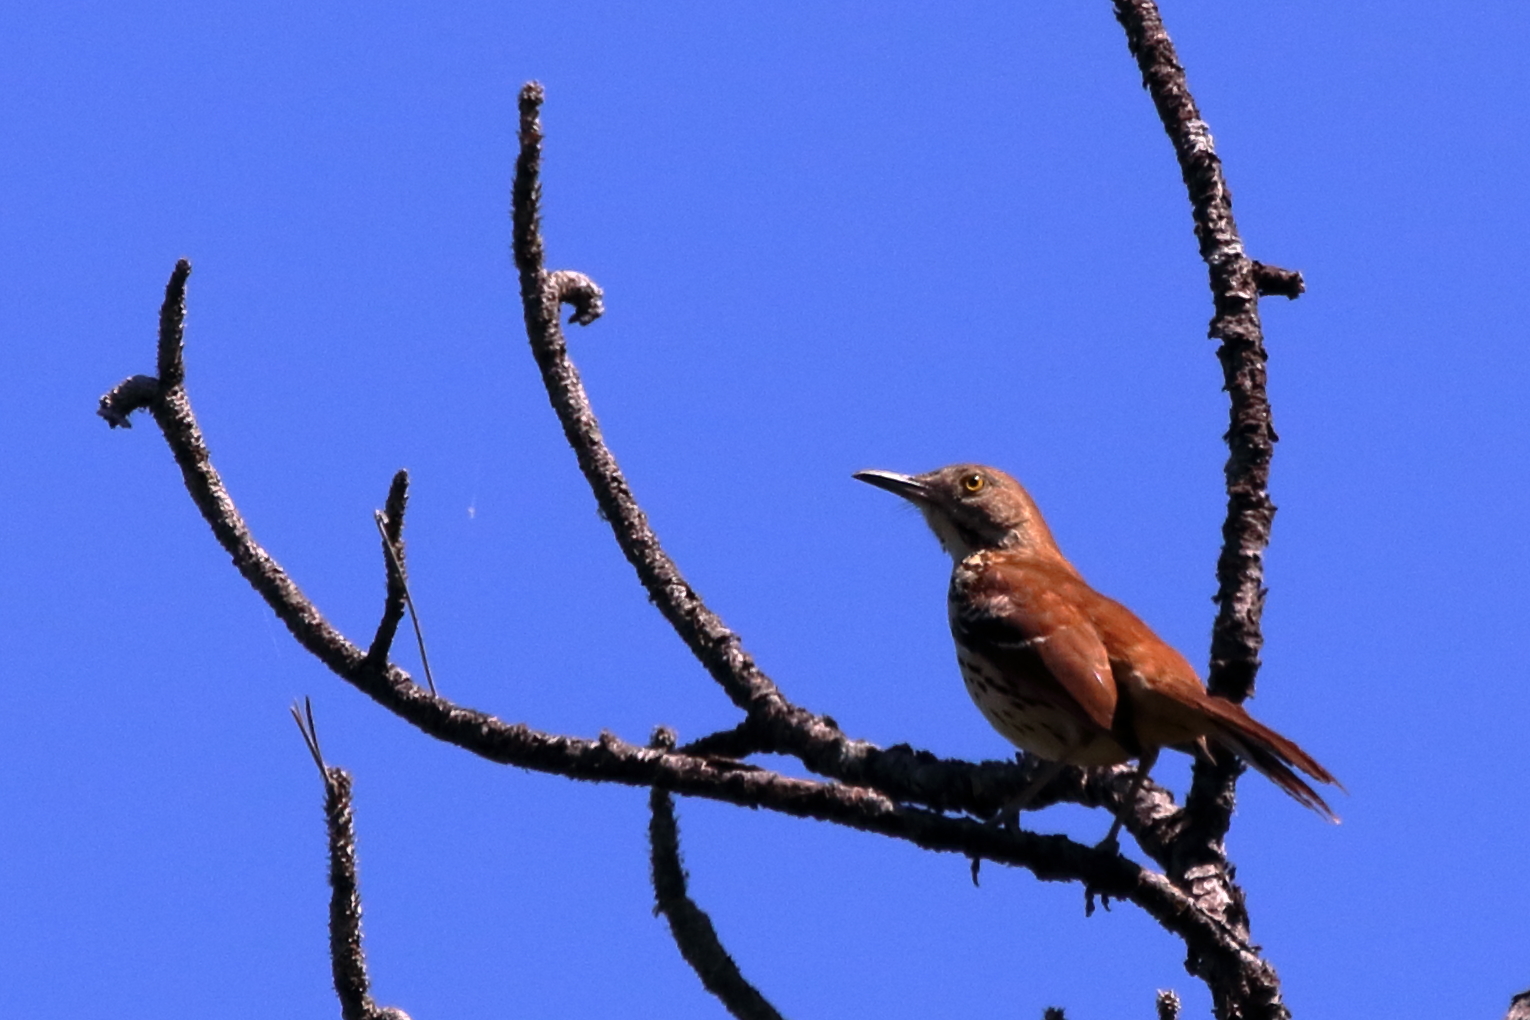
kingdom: Animalia
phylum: Chordata
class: Aves
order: Passeriformes
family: Mimidae
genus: Toxostoma
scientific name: Toxostoma rufum
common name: Brown thrasher
